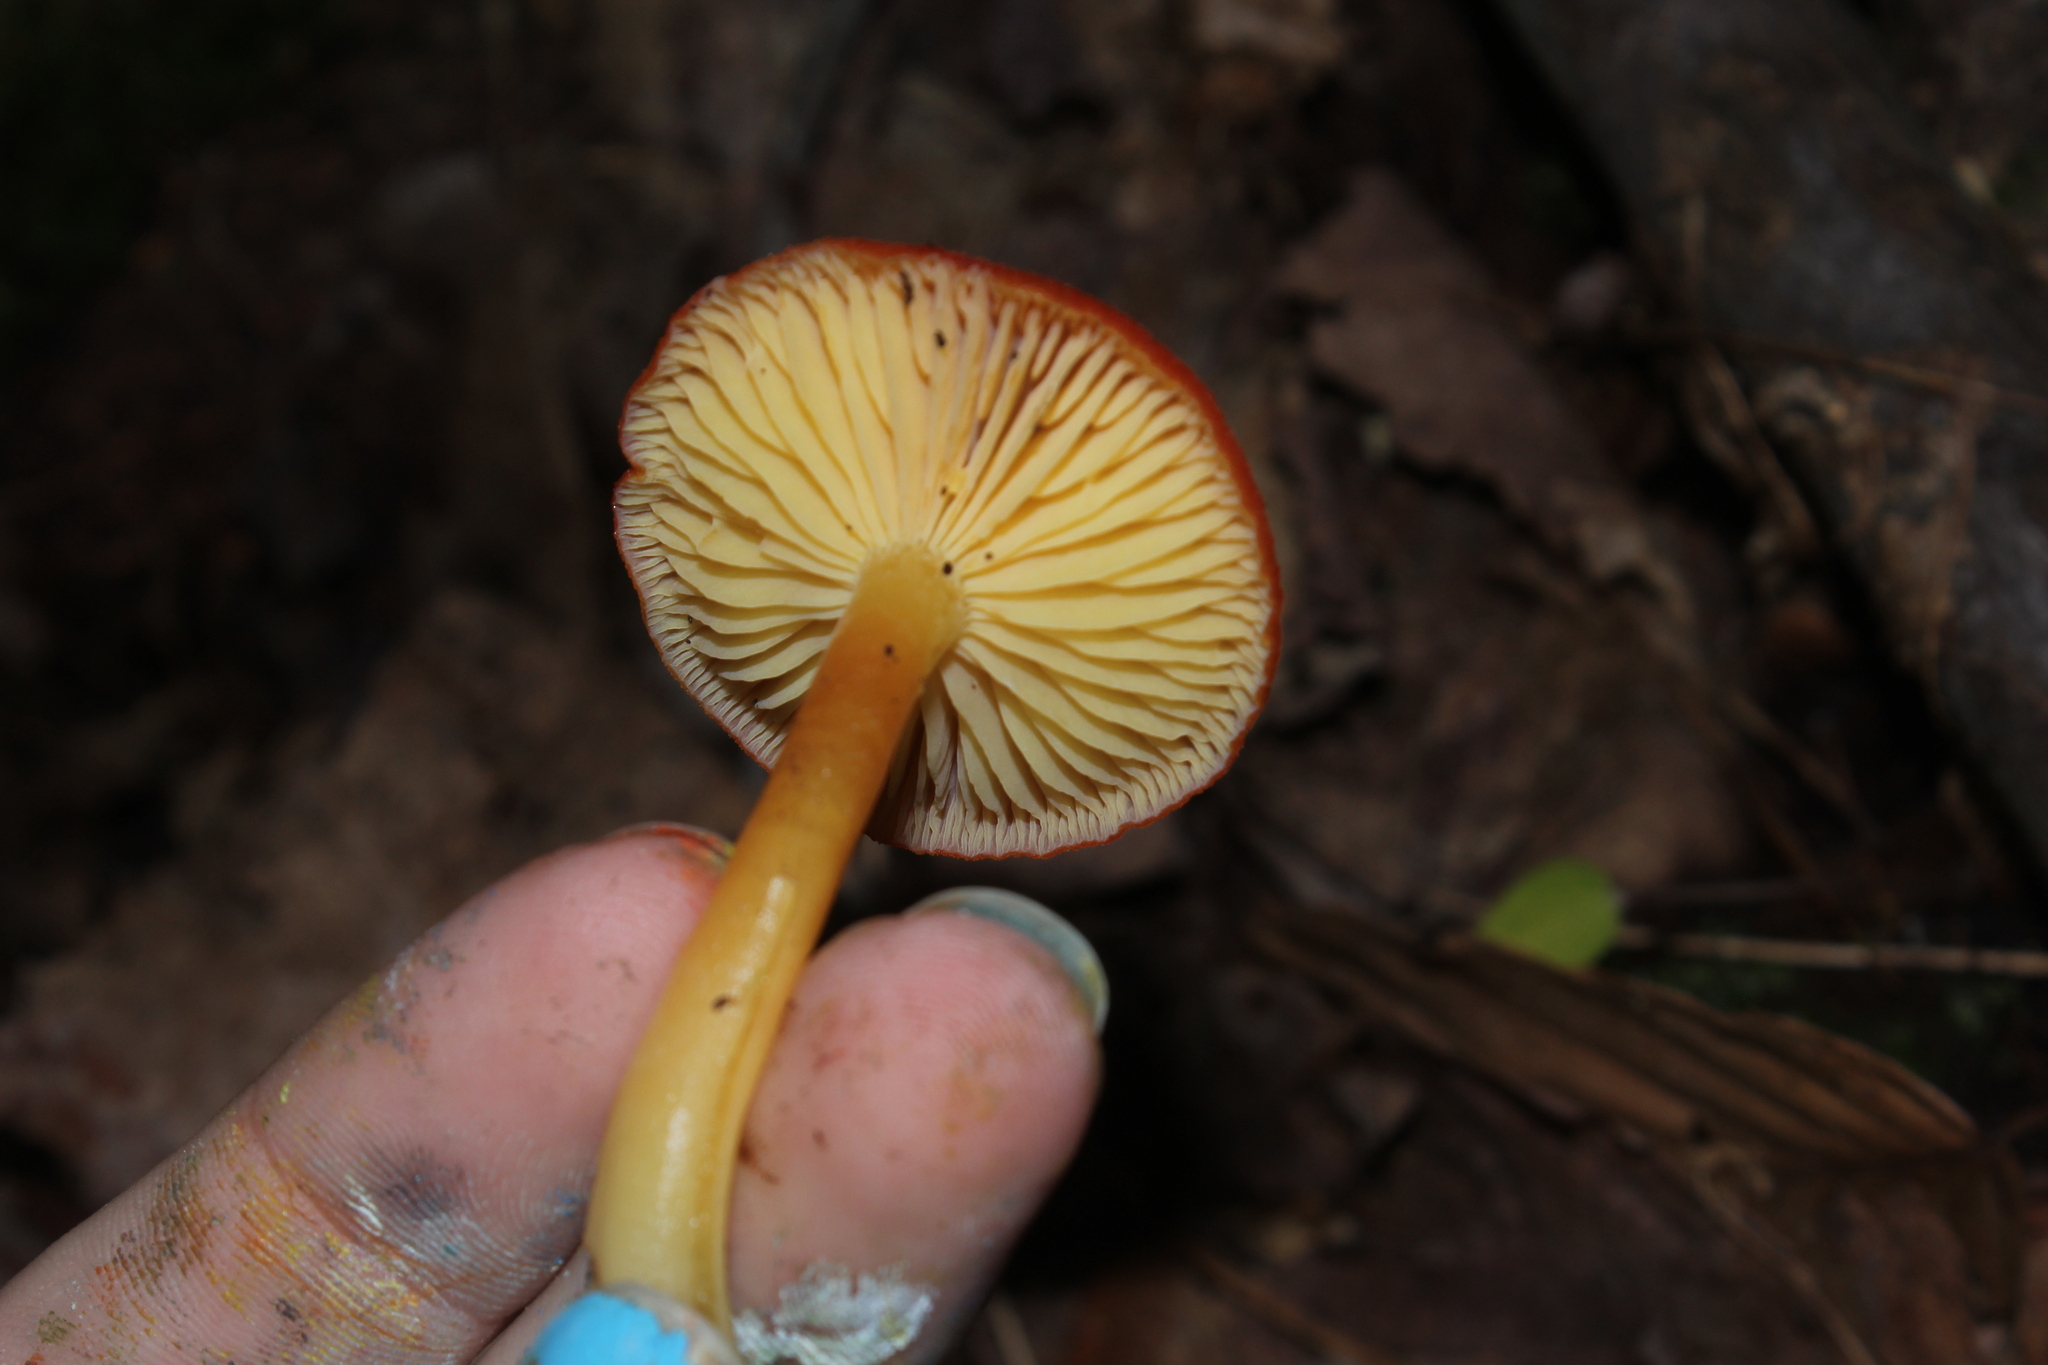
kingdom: Fungi
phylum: Basidiomycota
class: Agaricomycetes
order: Agaricales
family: Hygrophoraceae
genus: Hygrocybe
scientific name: Hygrocybe miniata
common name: Vermilion waxcap
